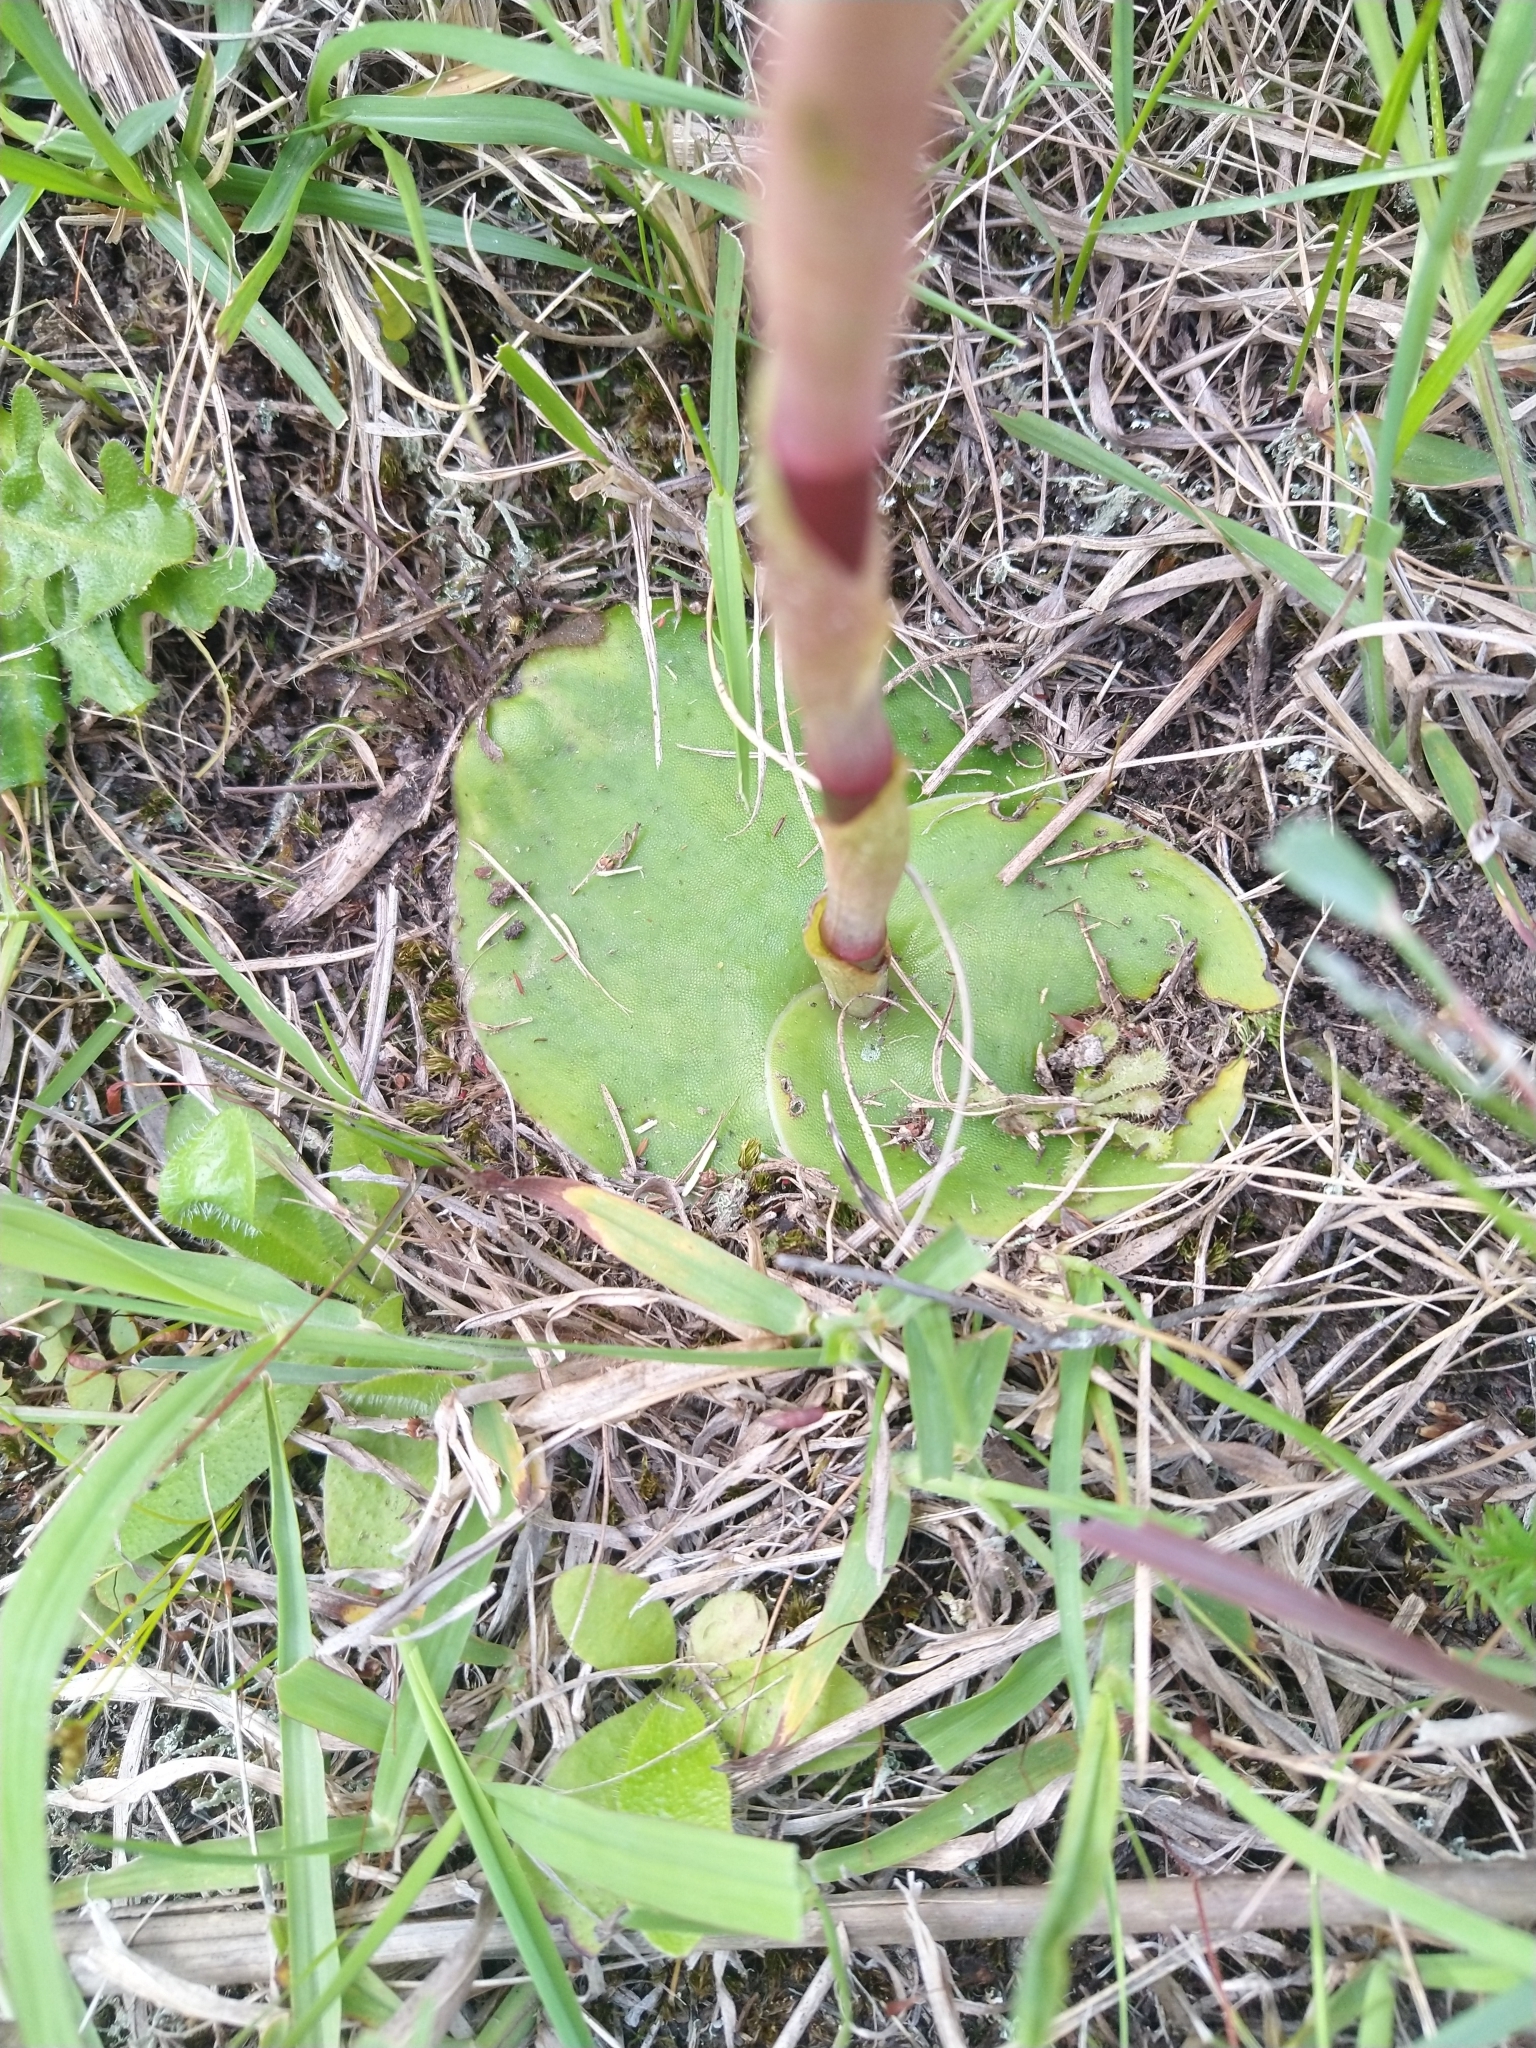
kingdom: Plantae
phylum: Tracheophyta
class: Liliopsida
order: Asparagales
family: Orchidaceae
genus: Satyrium
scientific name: Satyrium longicolle
